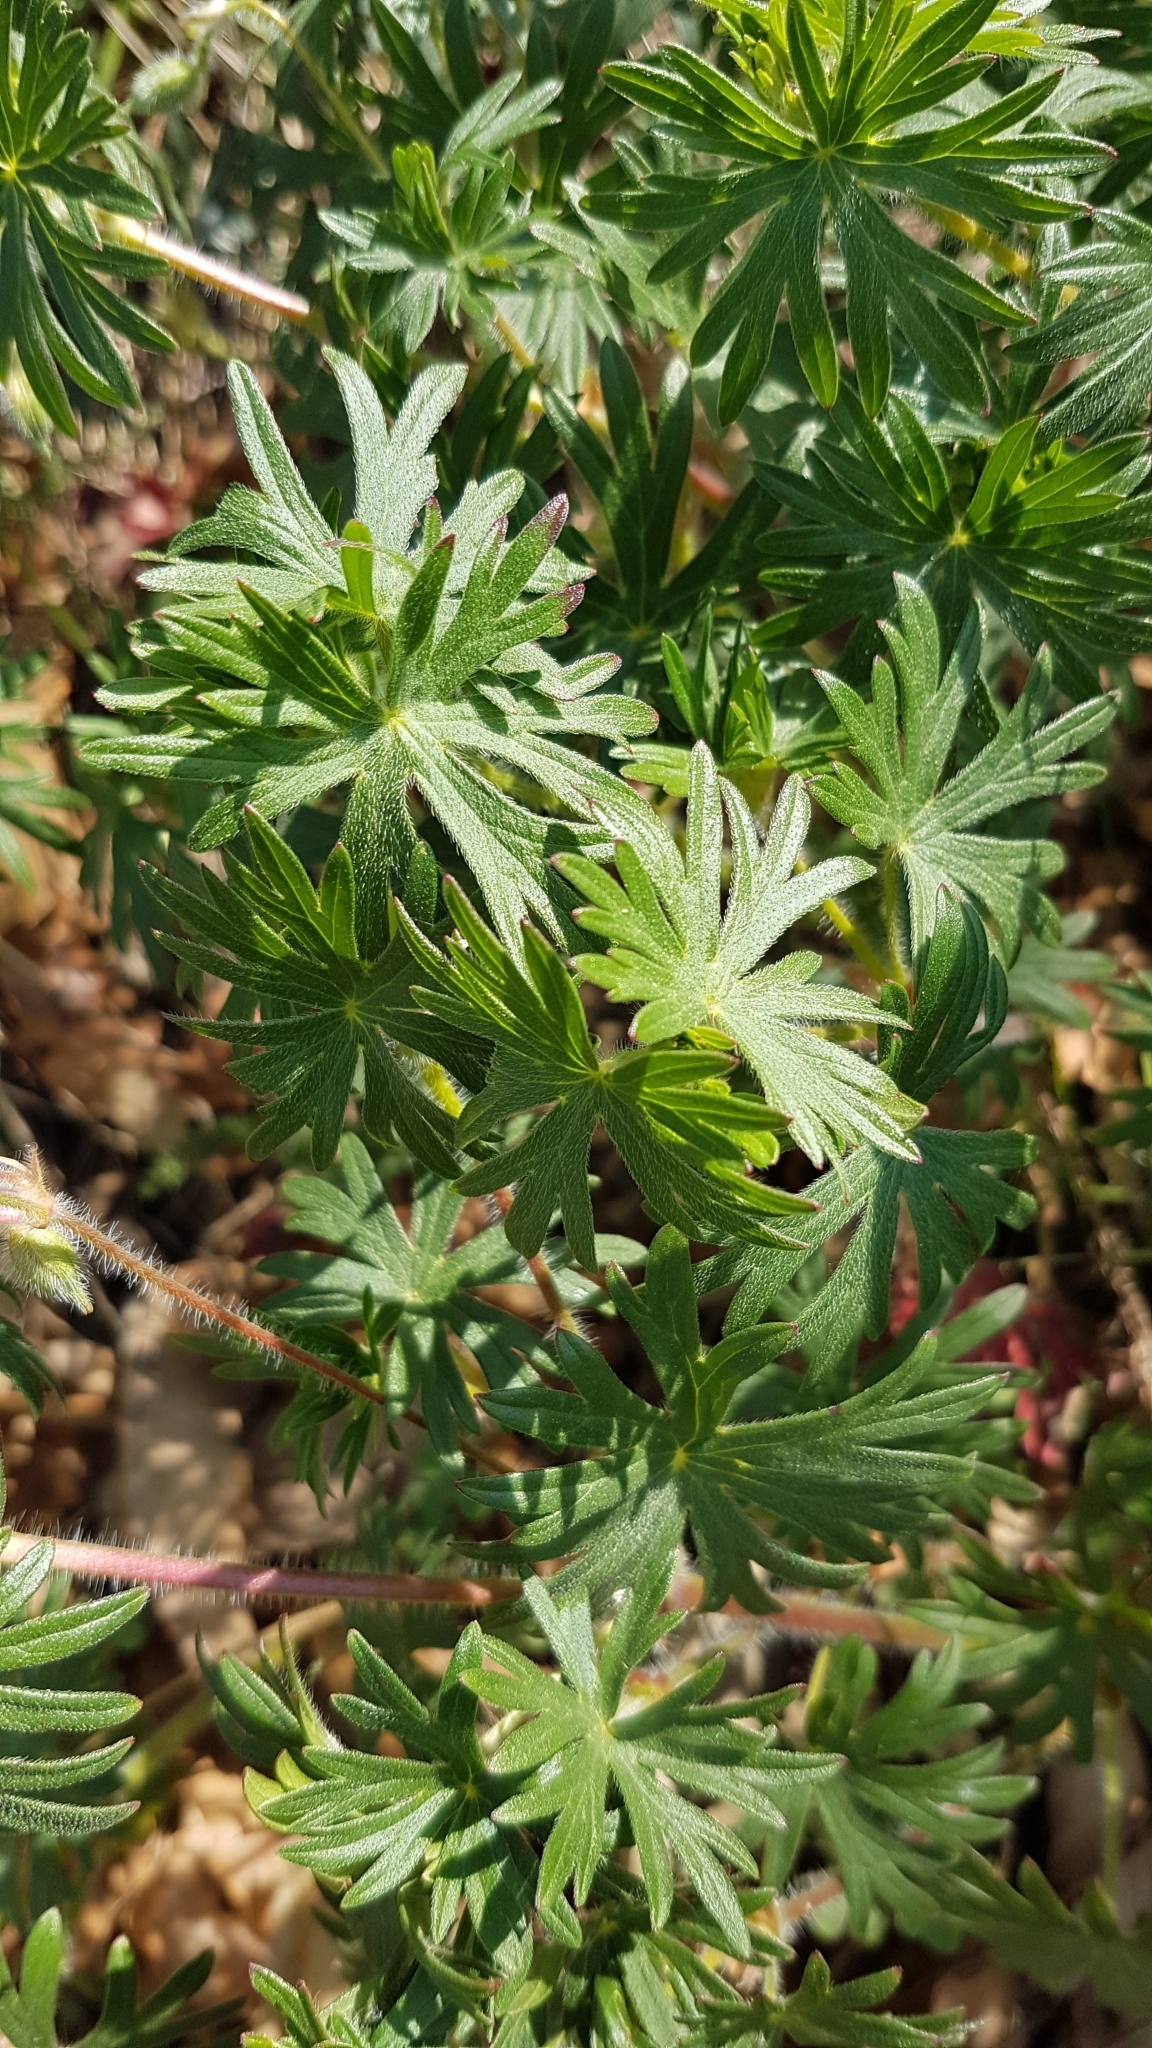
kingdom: Plantae
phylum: Tracheophyta
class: Magnoliopsida
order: Geraniales
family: Geraniaceae
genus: Geranium
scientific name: Geranium sanguineum
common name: Bloody crane's-bill
